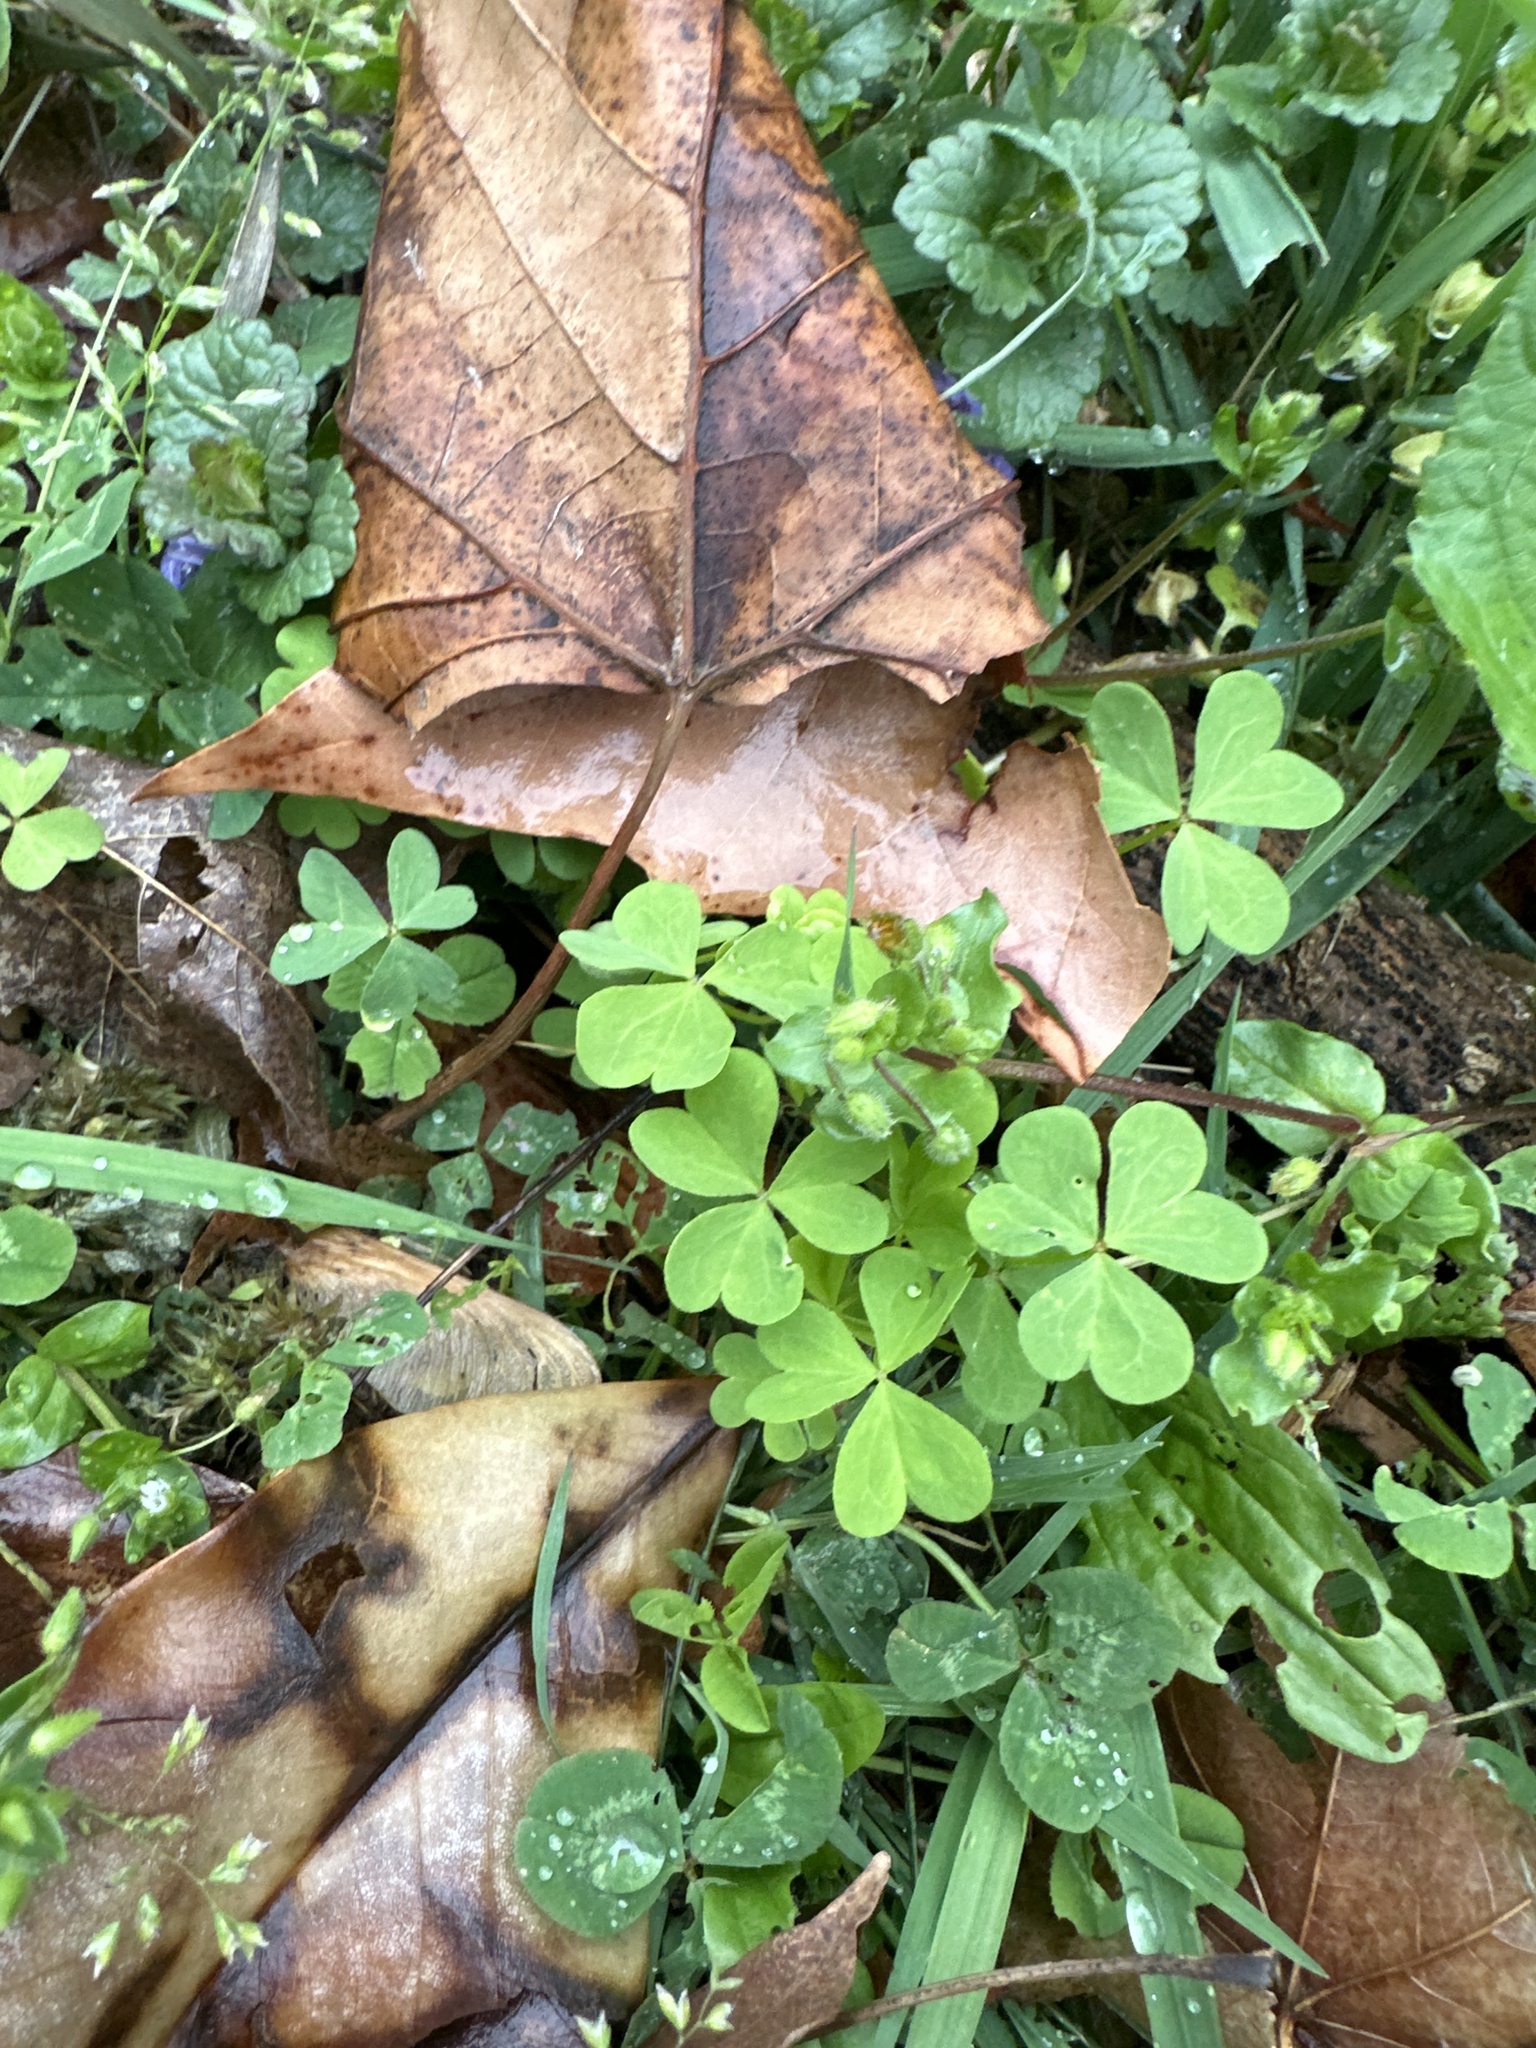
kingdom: Plantae
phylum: Tracheophyta
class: Magnoliopsida
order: Oxalidales
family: Oxalidaceae
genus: Oxalis
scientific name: Oxalis dillenii
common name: Sussex yellow-sorrel
